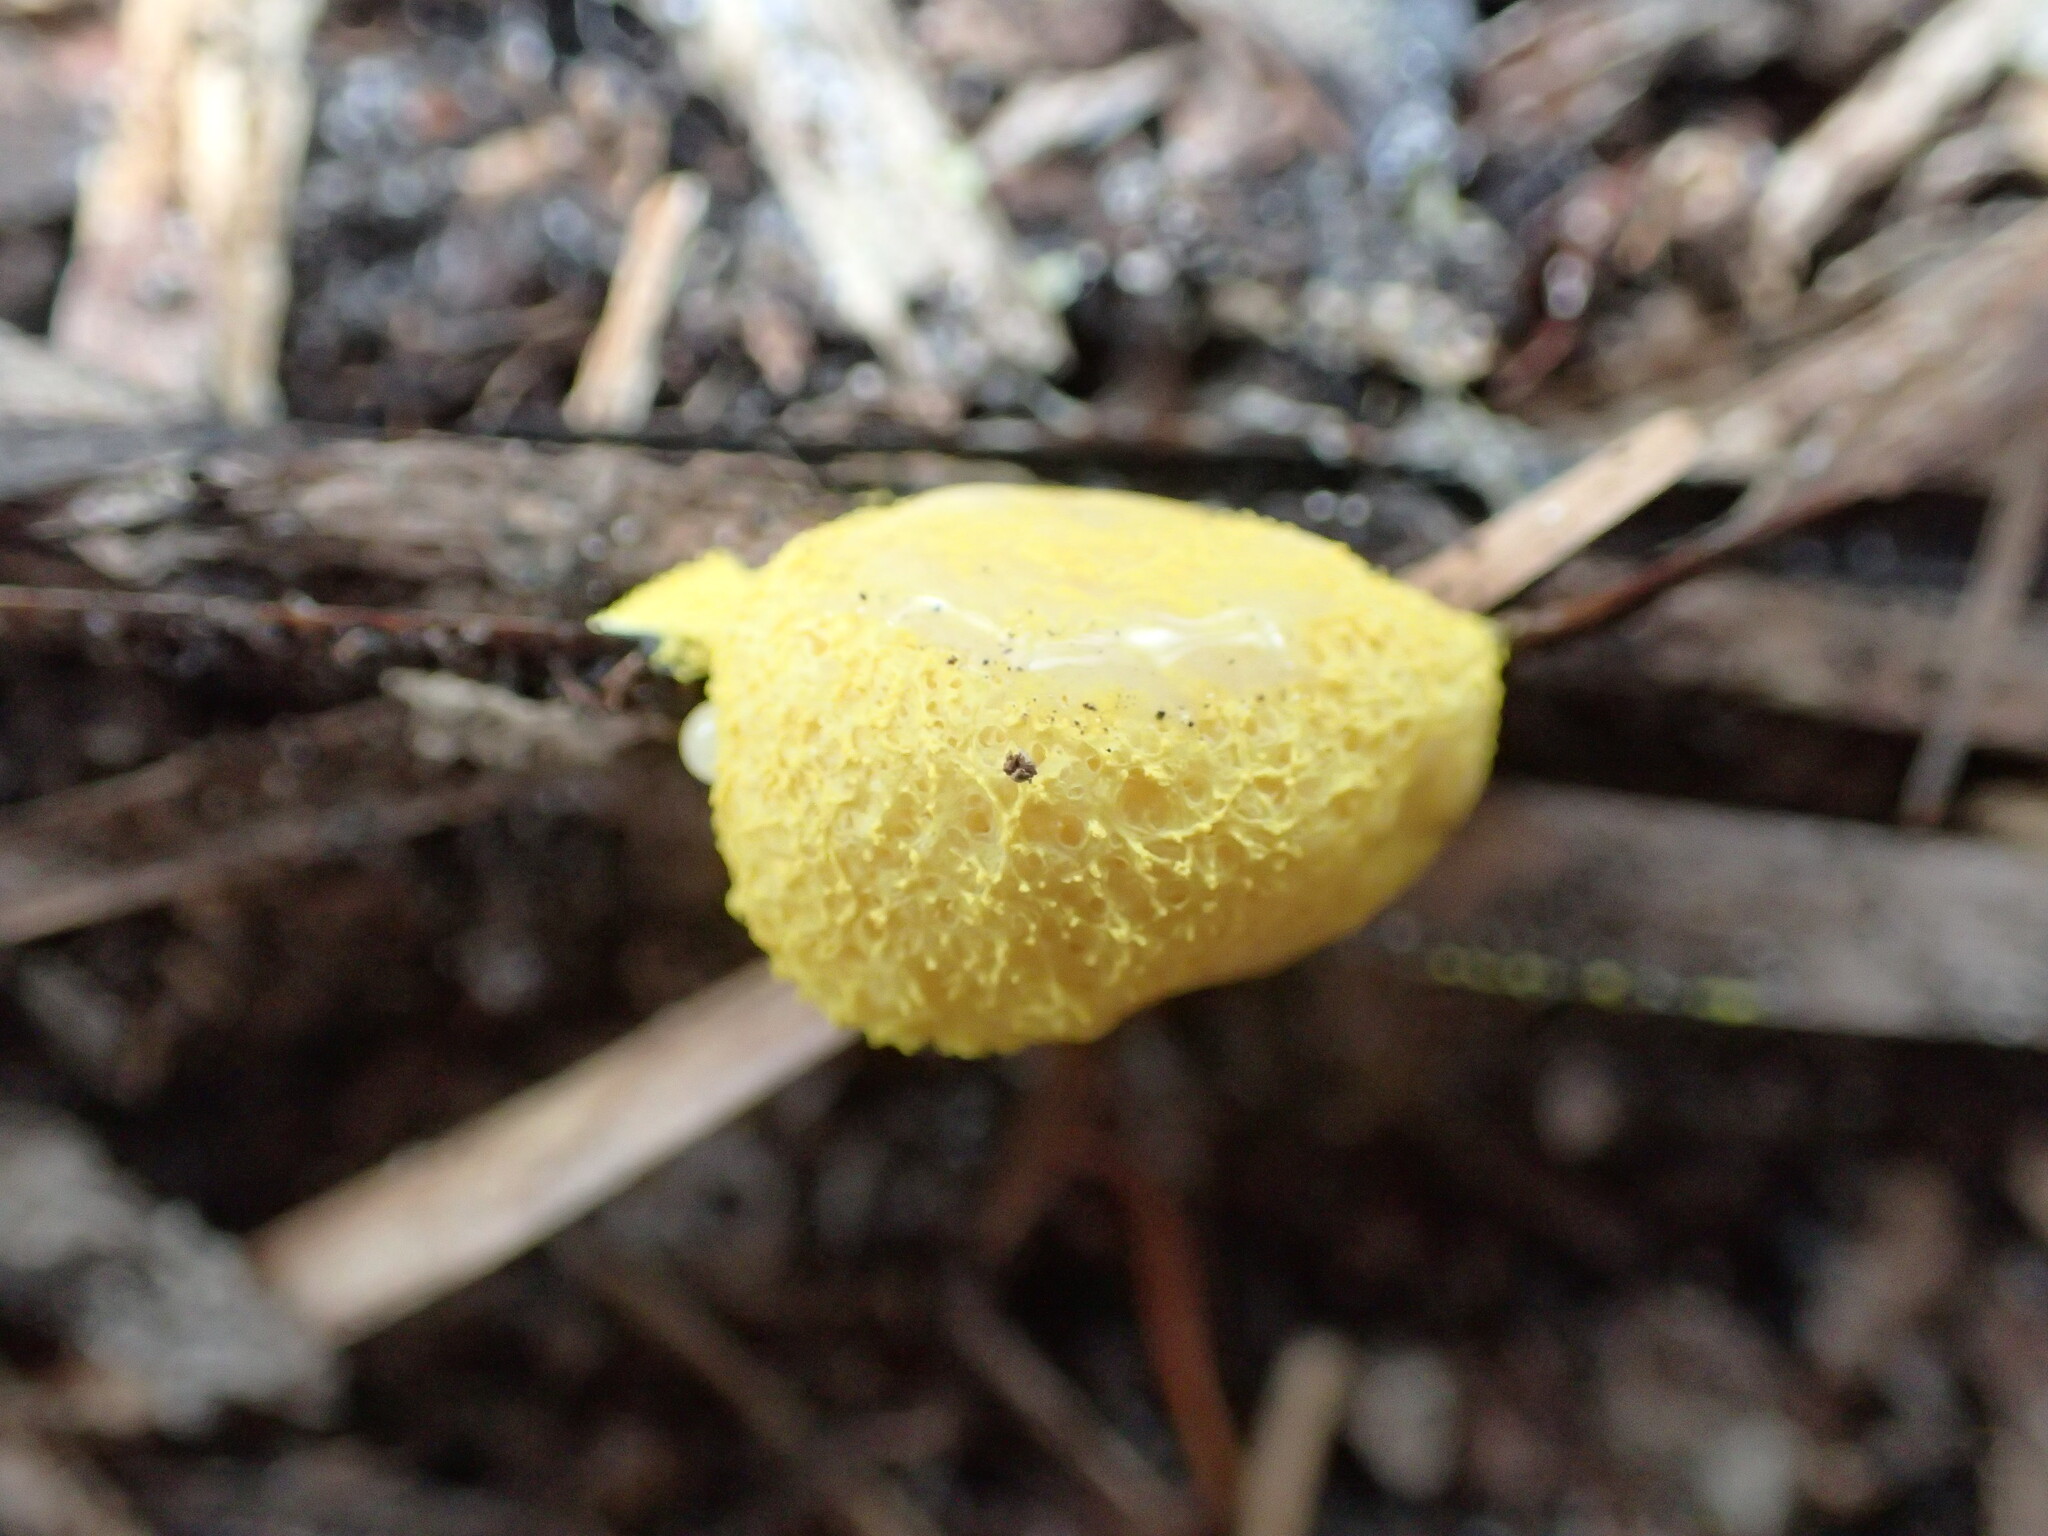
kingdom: Protozoa
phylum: Mycetozoa
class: Myxomycetes
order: Physarales
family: Physaraceae
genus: Fuligo
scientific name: Fuligo septica
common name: Dog vomit slime mold
